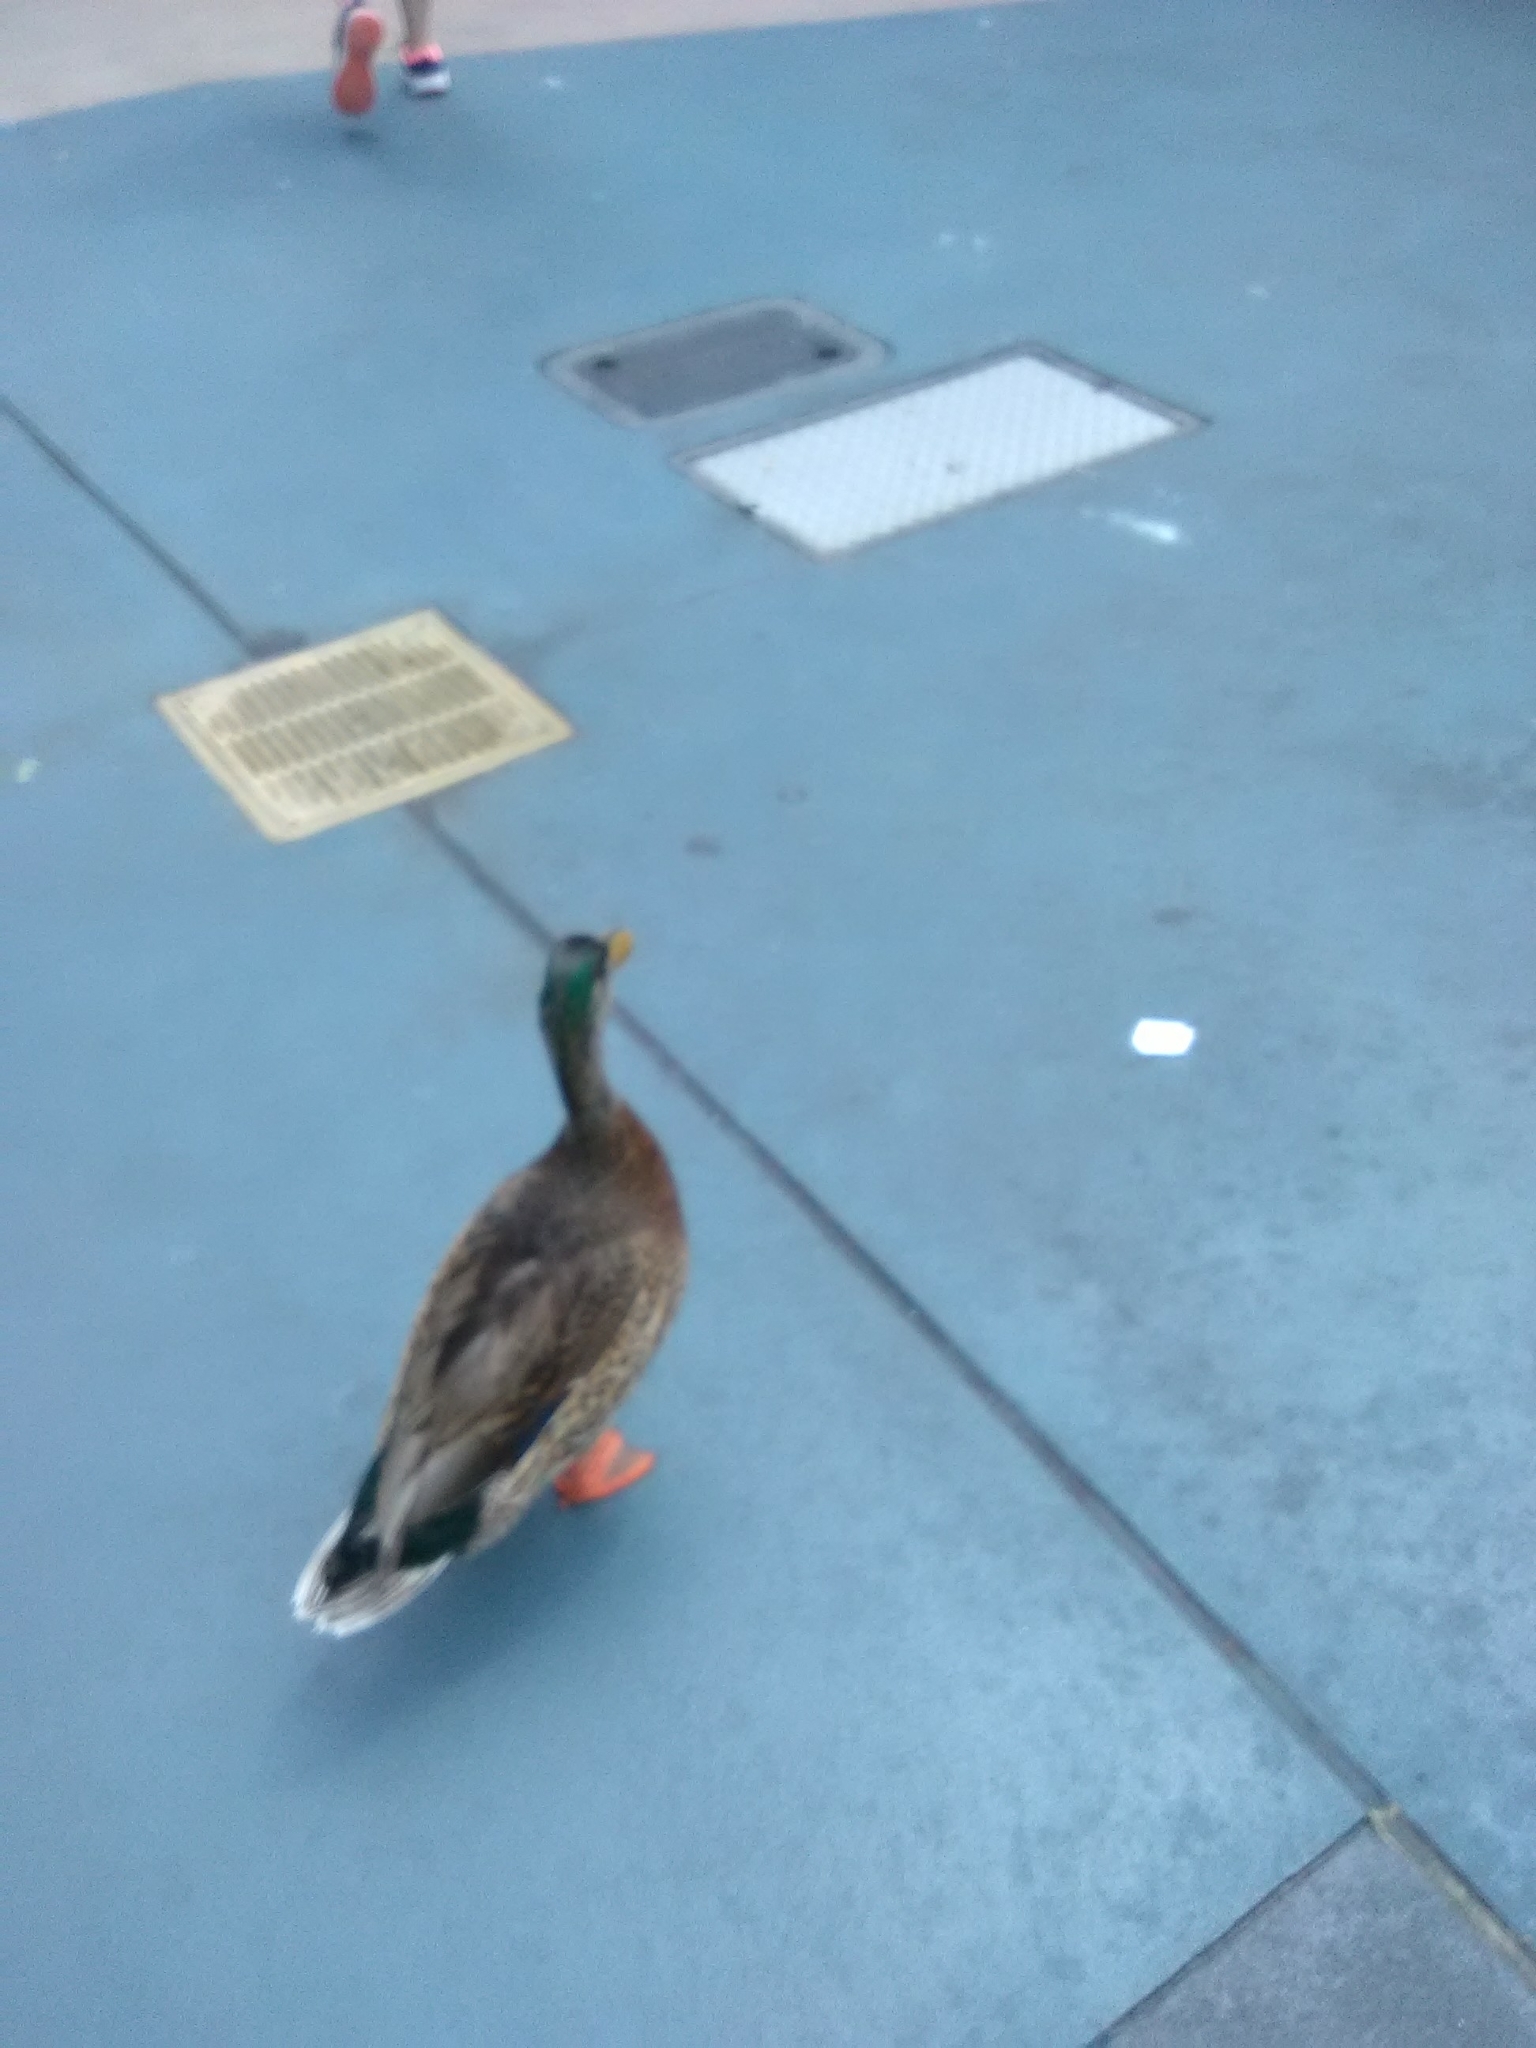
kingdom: Animalia
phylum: Chordata
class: Aves
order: Anseriformes
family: Anatidae
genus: Anas
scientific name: Anas platyrhynchos
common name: Mallard
